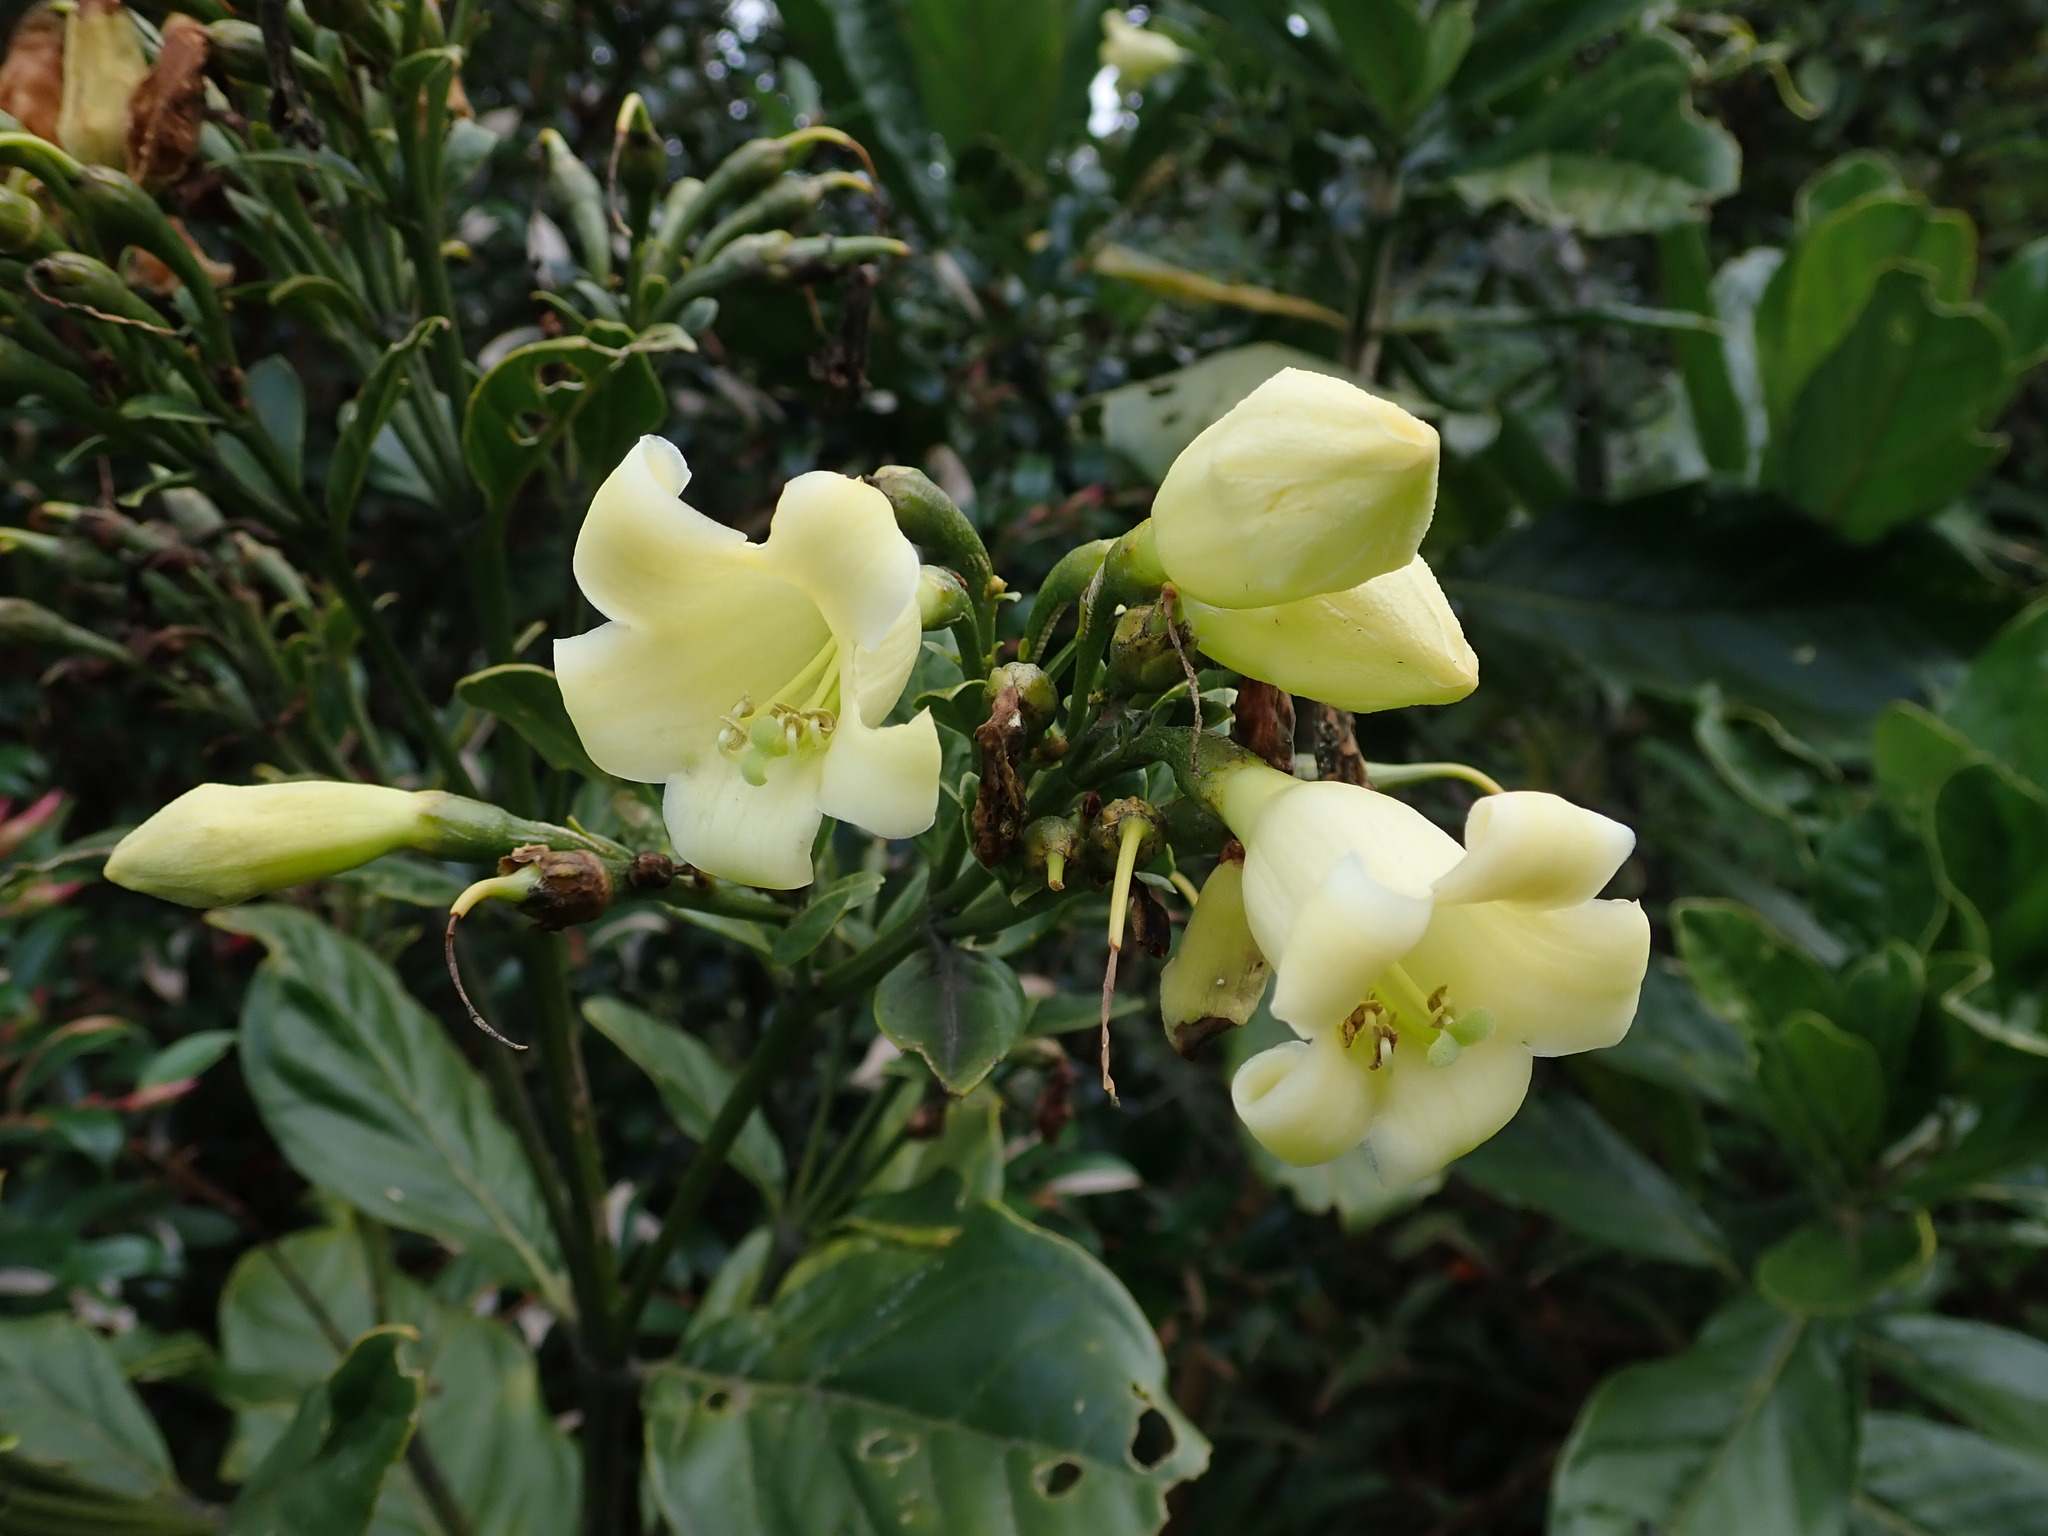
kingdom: Plantae
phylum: Tracheophyta
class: Magnoliopsida
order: Gentianales
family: Gentianaceae
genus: Macrocarpaea
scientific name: Macrocarpaea noctiluca
